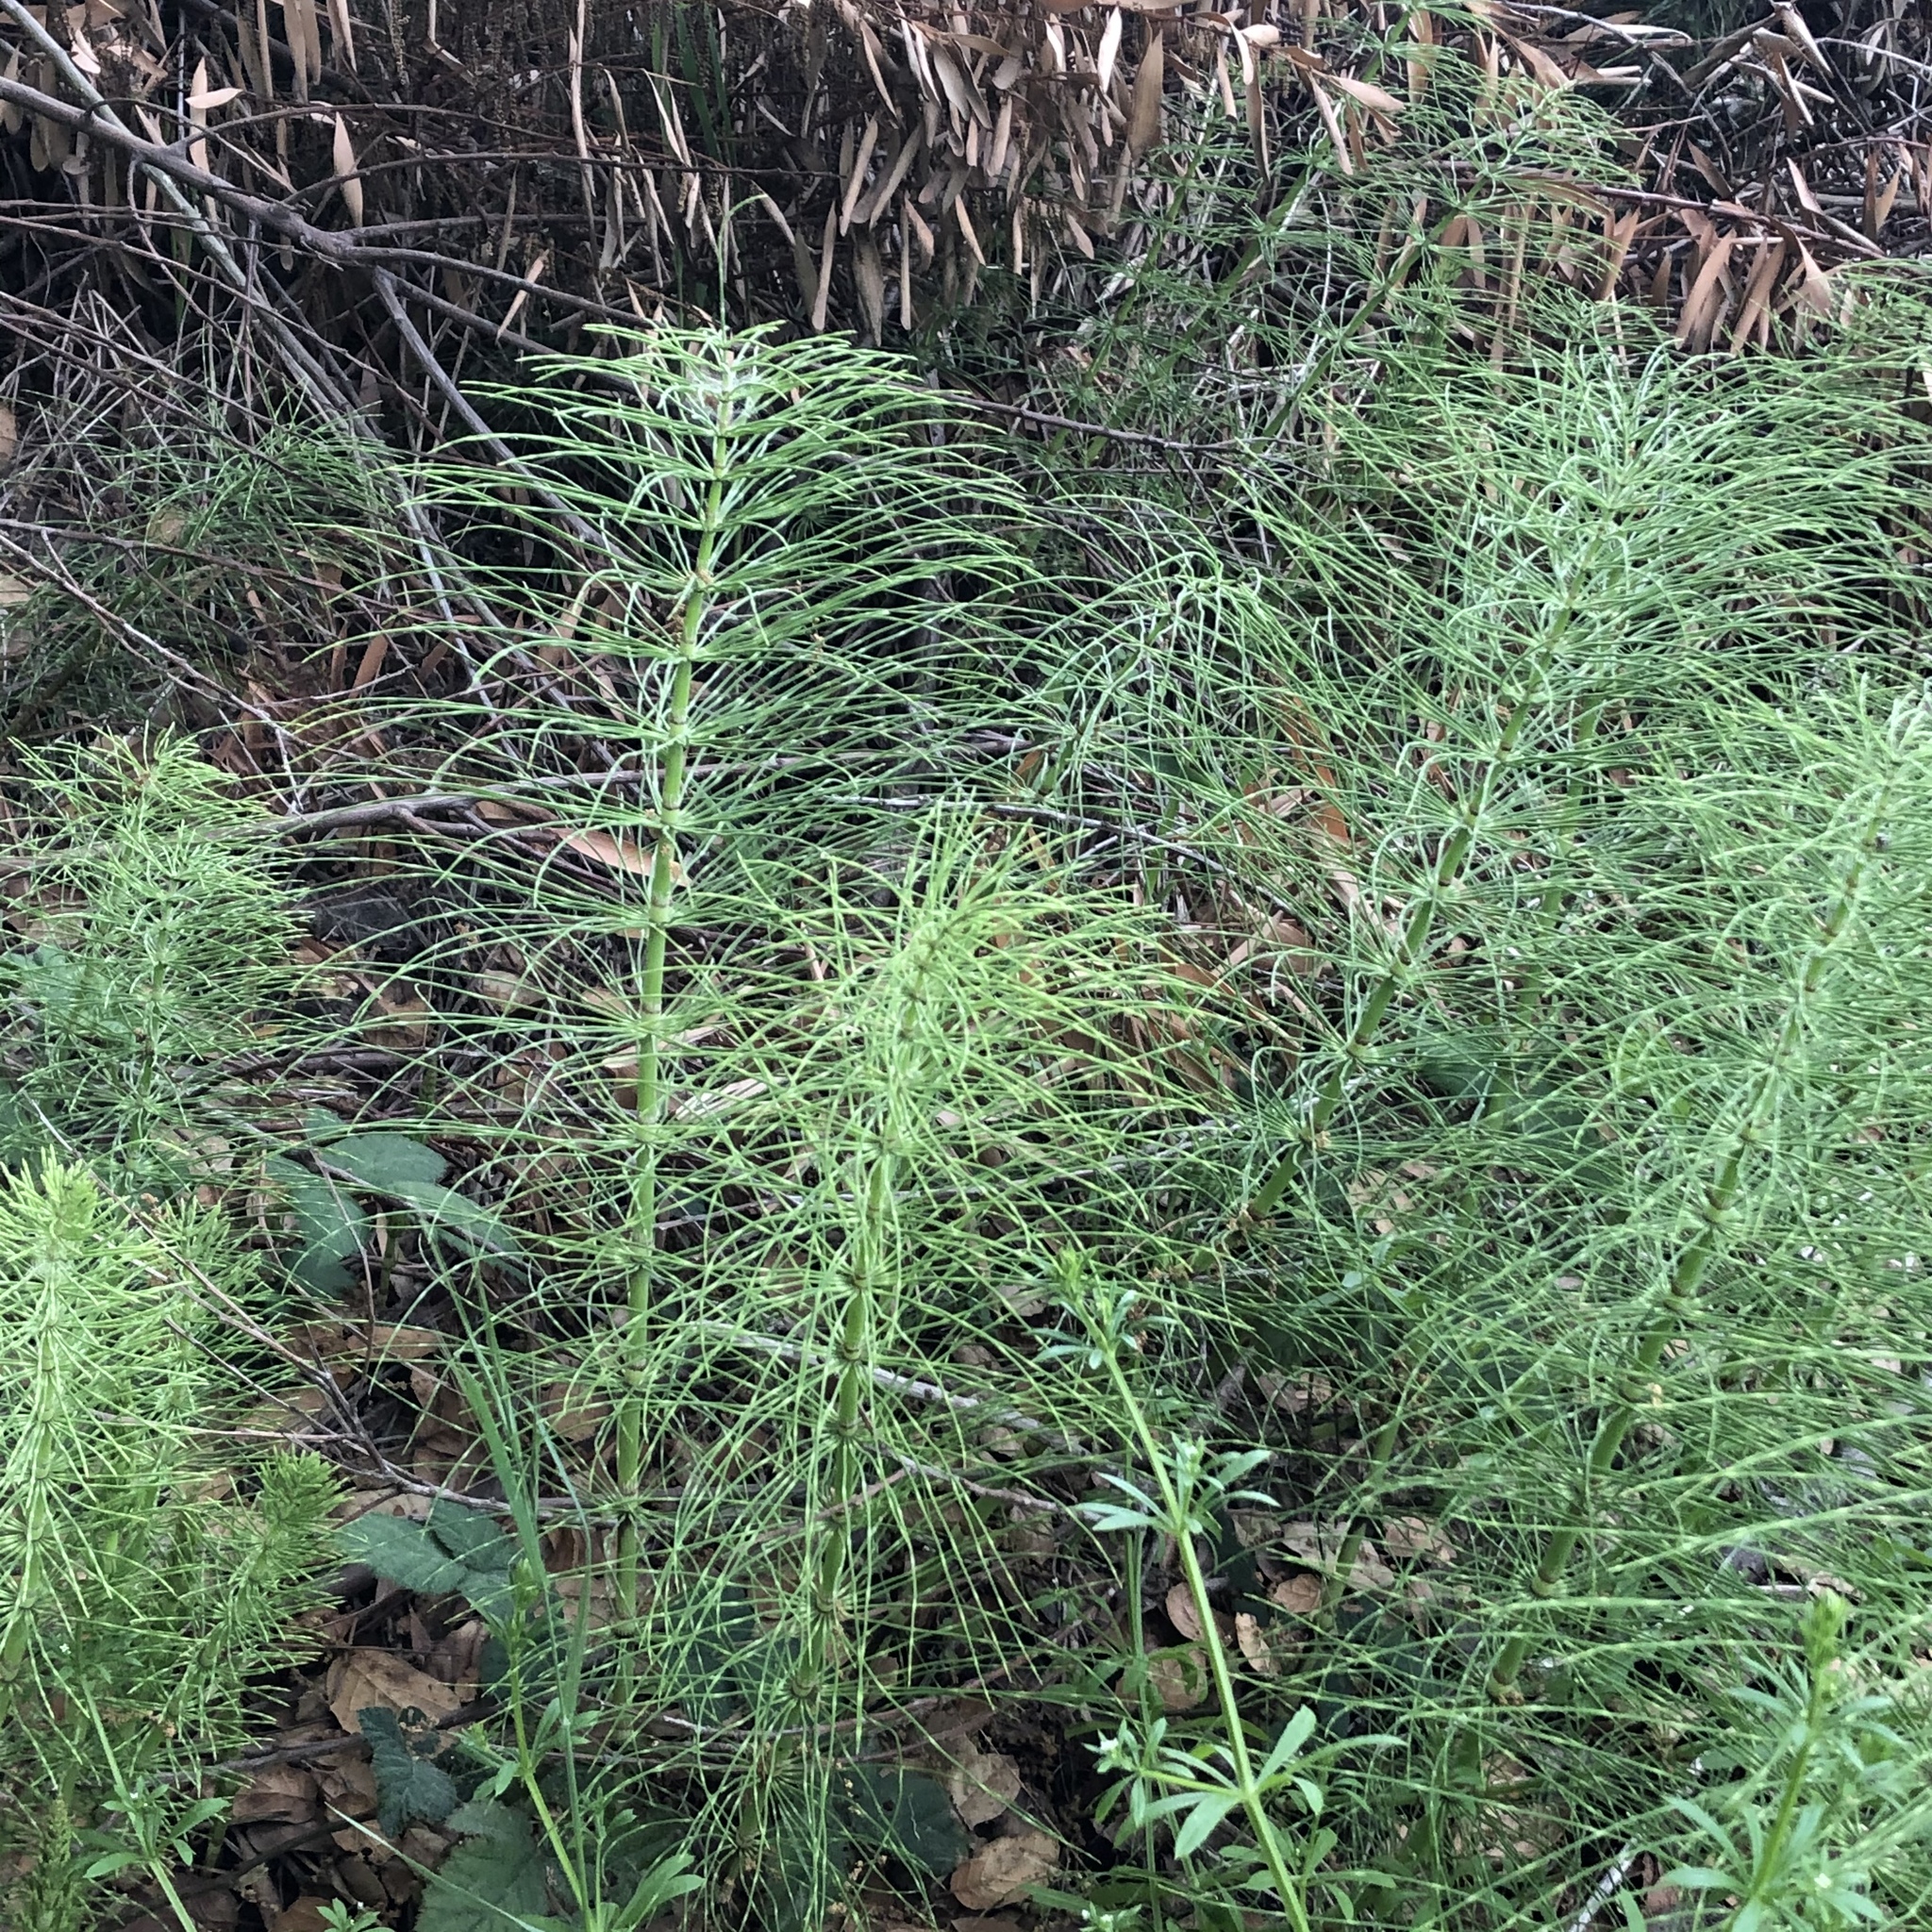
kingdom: Plantae
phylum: Tracheophyta
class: Polypodiopsida
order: Equisetales
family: Equisetaceae
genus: Equisetum
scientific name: Equisetum braunii
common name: Braun's horsetail
